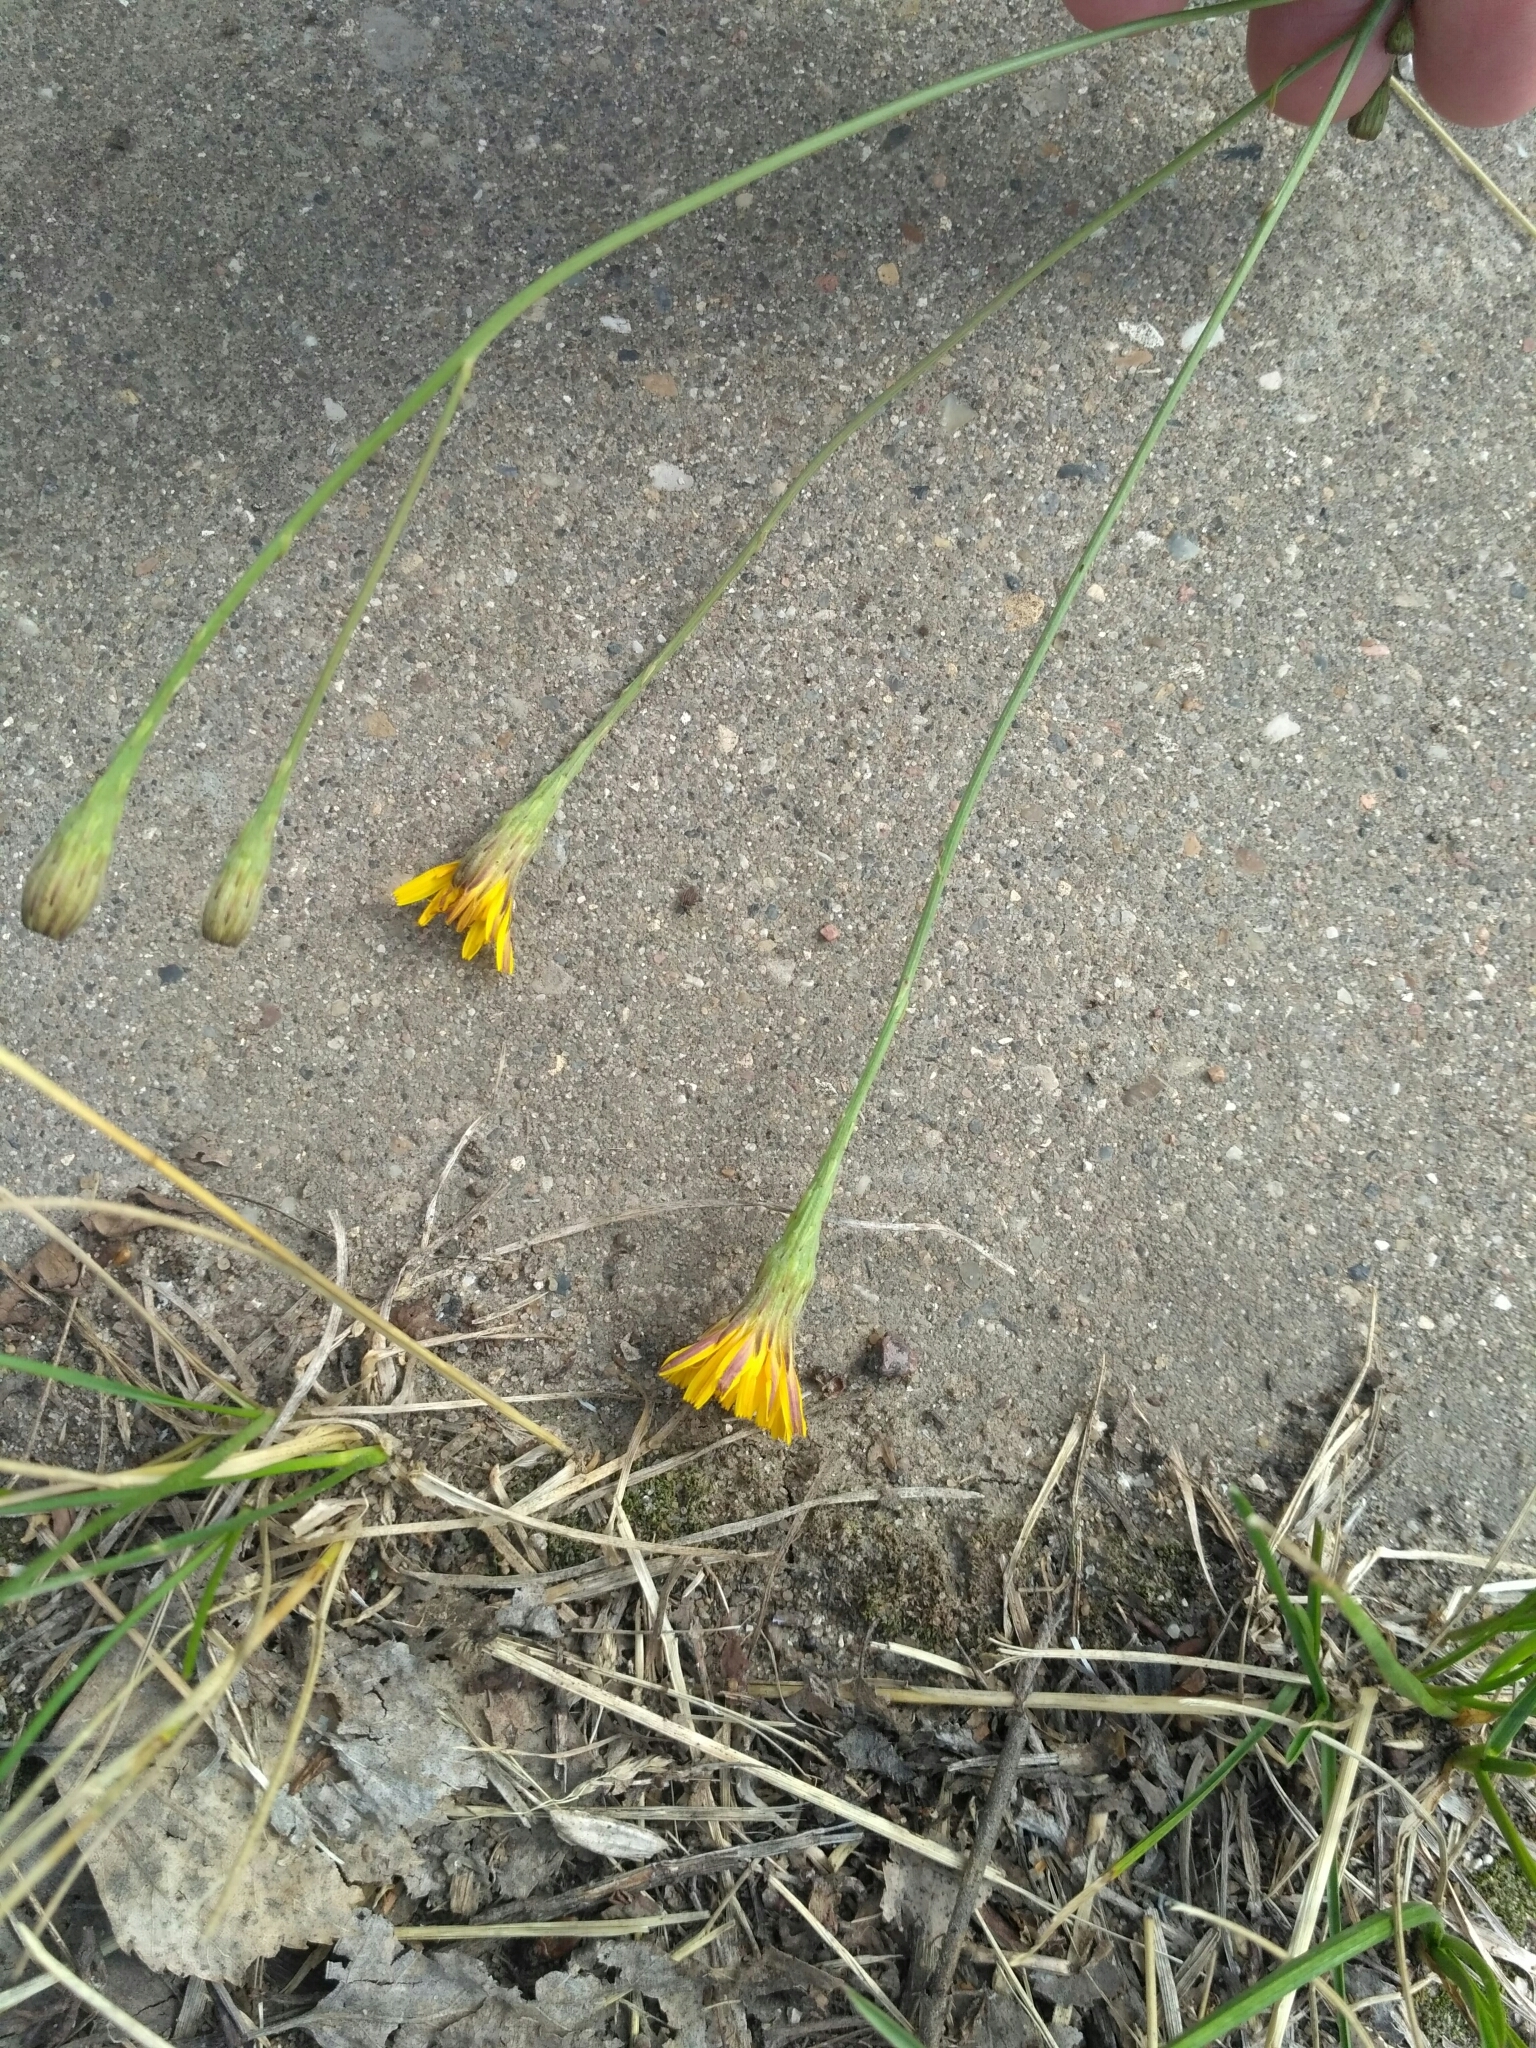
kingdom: Plantae
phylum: Tracheophyta
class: Magnoliopsida
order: Asterales
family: Asteraceae
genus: Scorzoneroides
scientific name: Scorzoneroides autumnalis
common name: Autumn hawkbit
